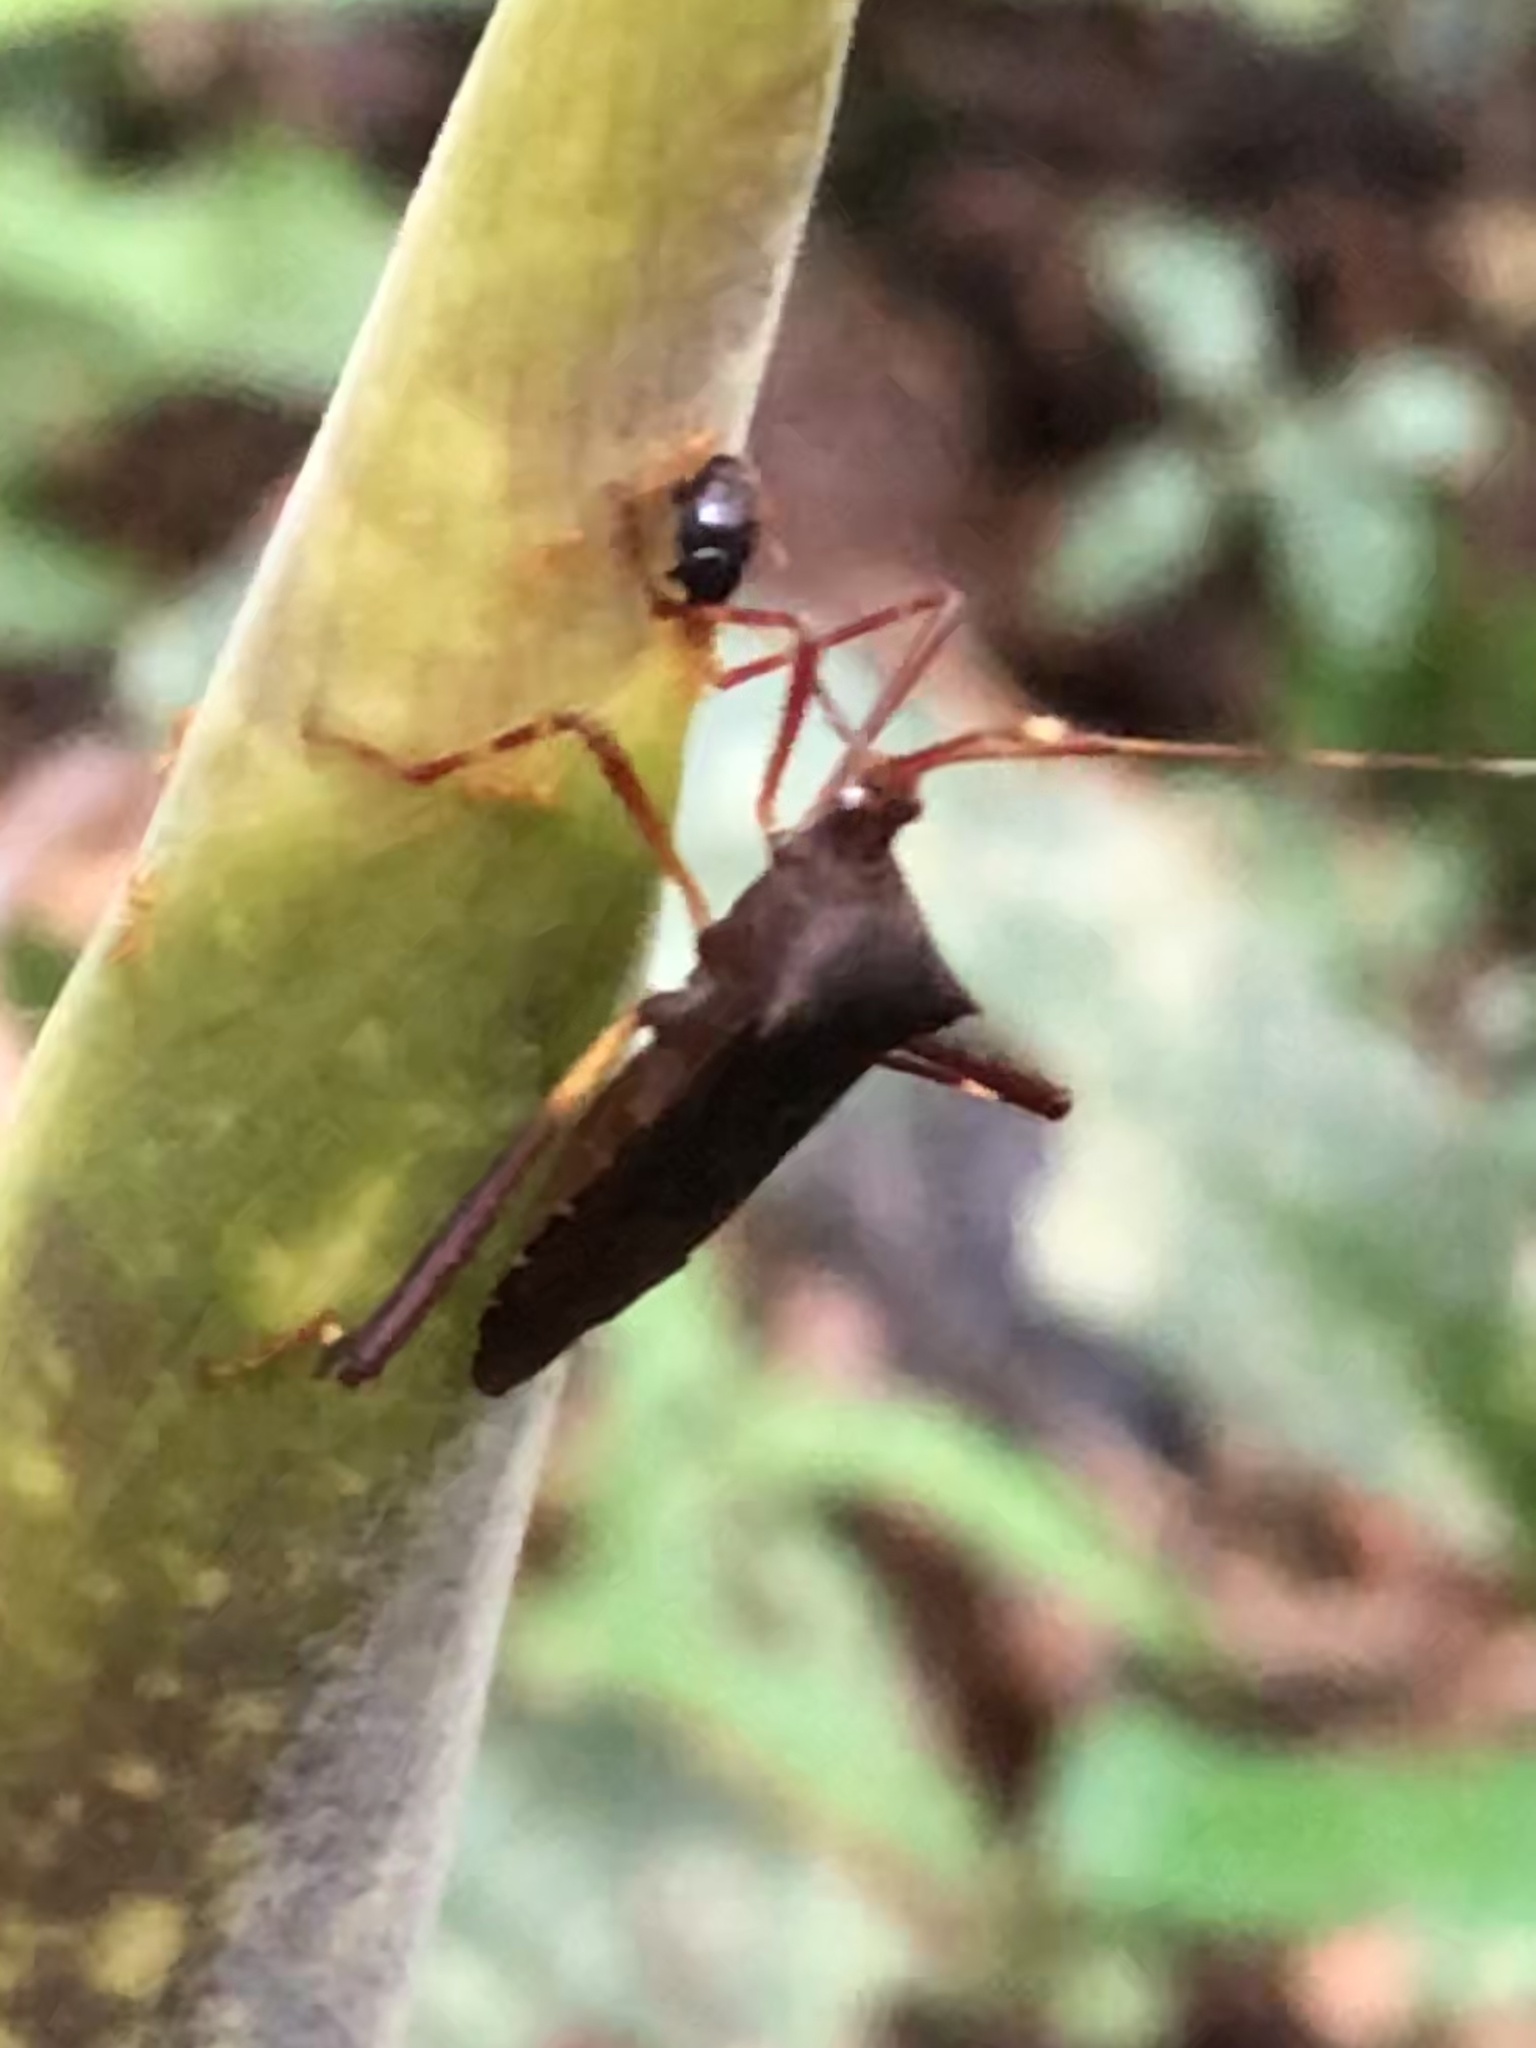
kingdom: Animalia
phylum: Arthropoda
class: Insecta
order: Hemiptera
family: Coreidae
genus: Zygometapodus
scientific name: Zygometapodus castaneus
